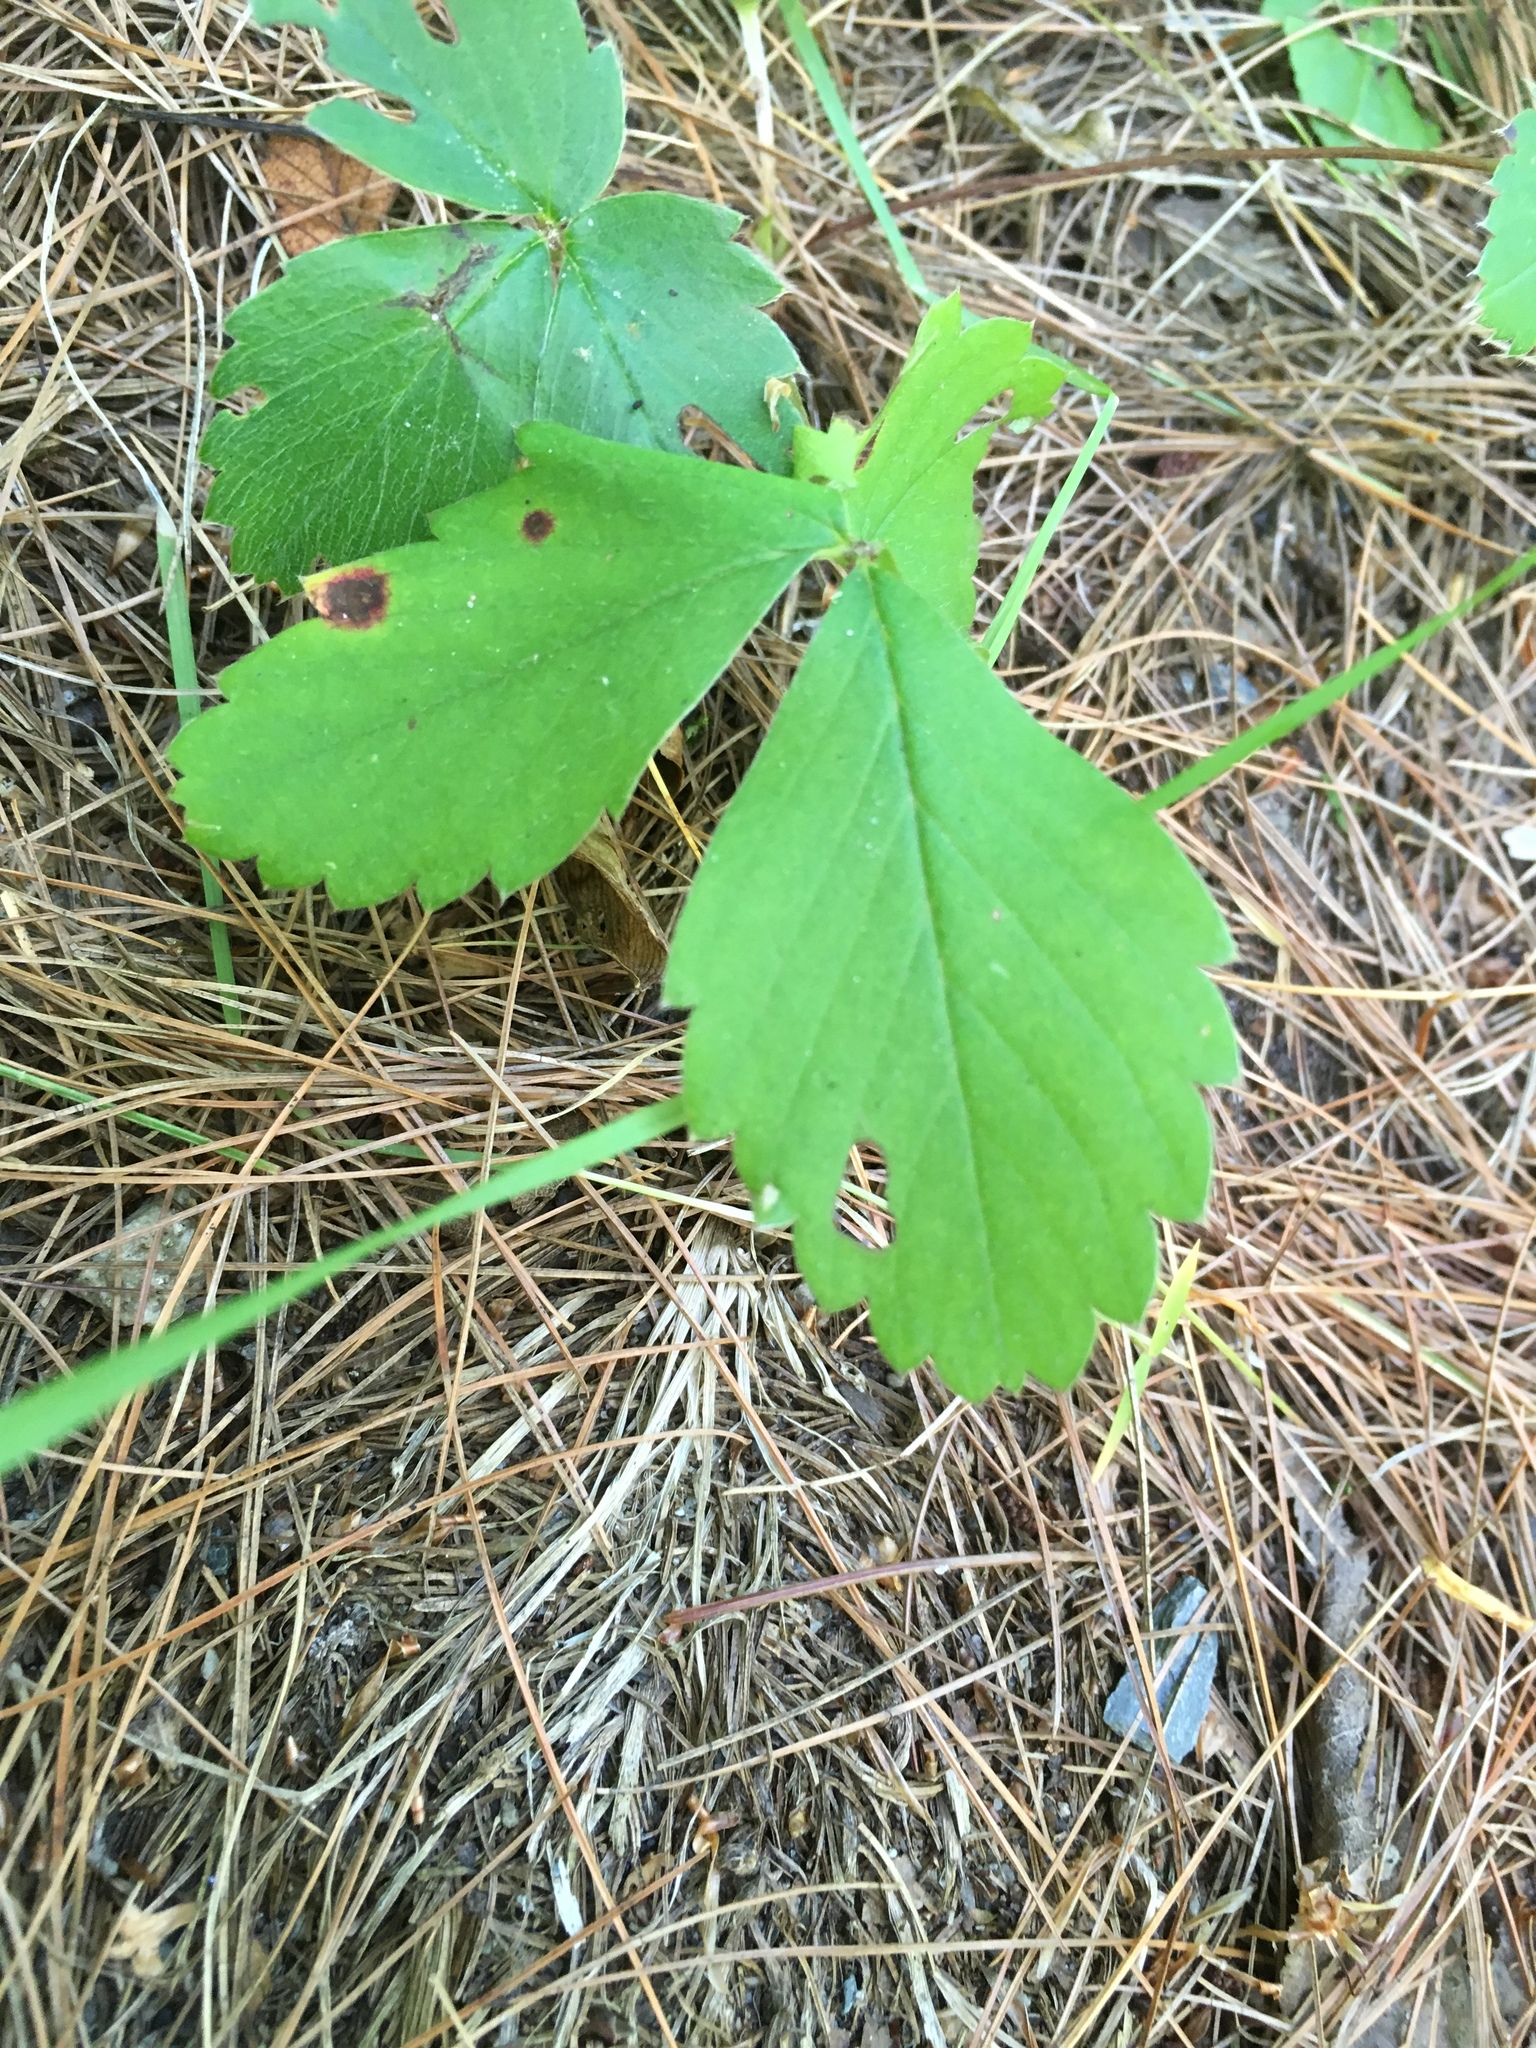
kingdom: Plantae
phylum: Tracheophyta
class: Magnoliopsida
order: Rosales
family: Rosaceae
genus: Fragaria
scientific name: Fragaria virginiana
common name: Thickleaved wild strawberry
